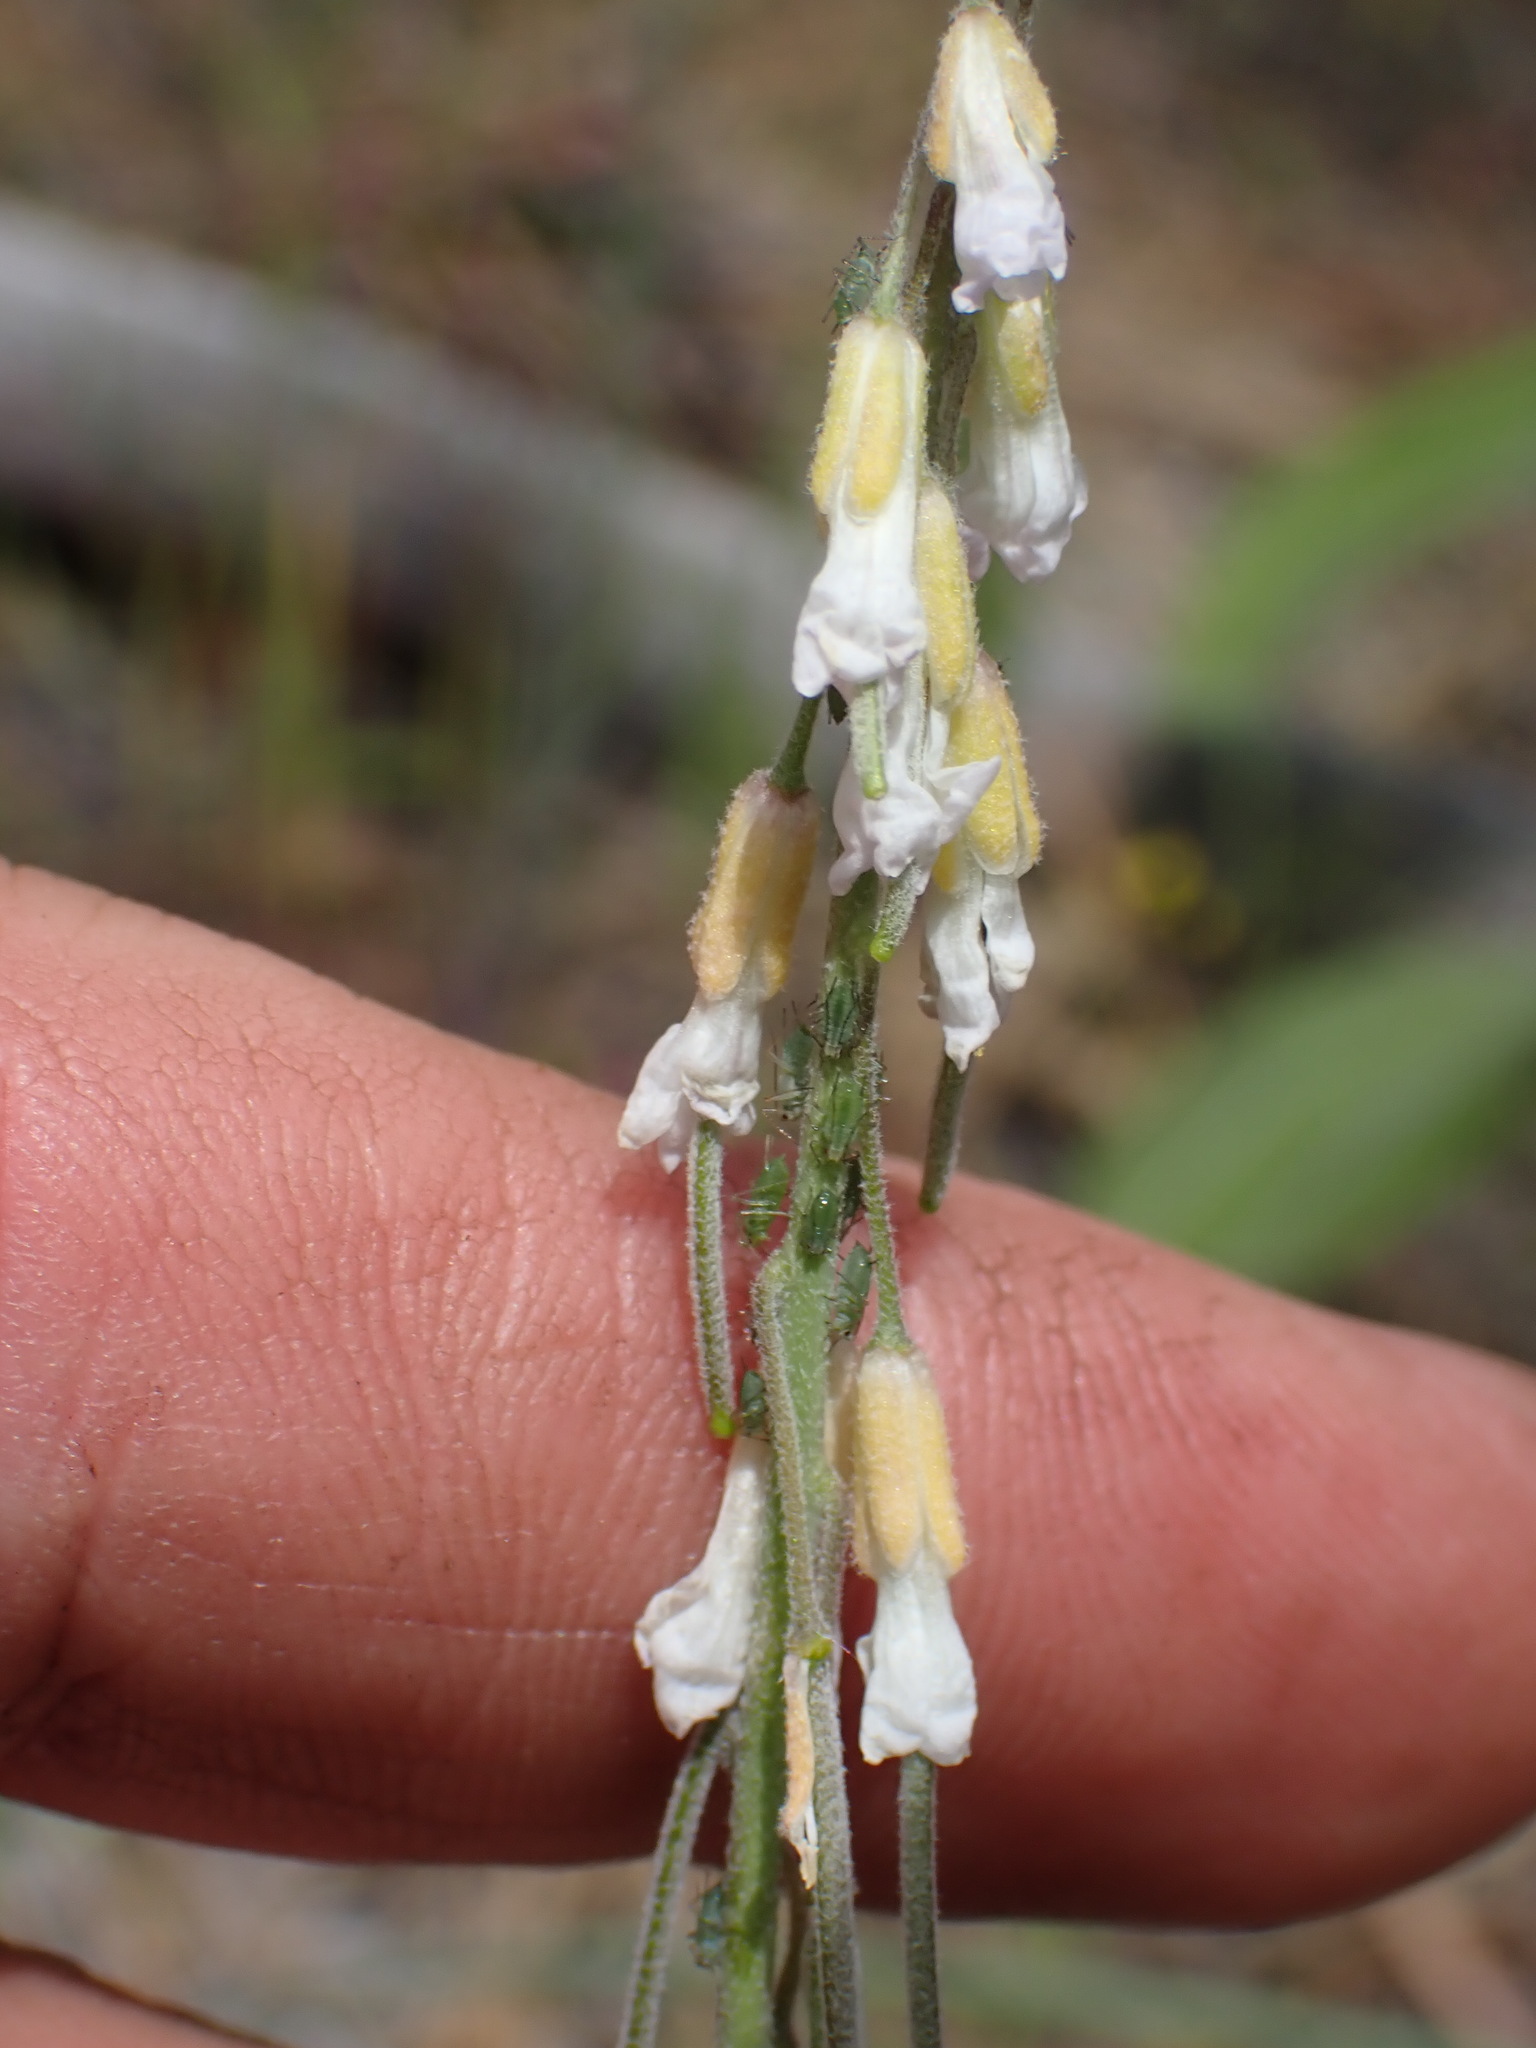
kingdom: Plantae
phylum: Tracheophyta
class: Magnoliopsida
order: Brassicales
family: Brassicaceae
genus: Boechera
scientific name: Boechera retrofracta
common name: Dangling suncress
